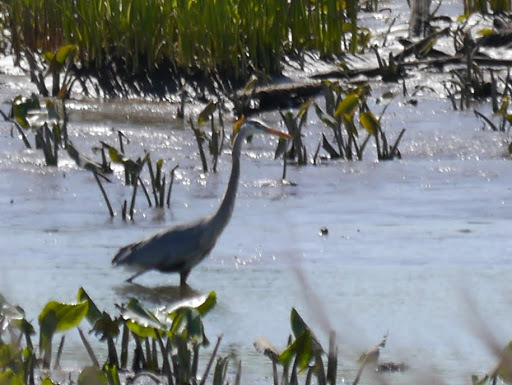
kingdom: Animalia
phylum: Chordata
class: Aves
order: Pelecaniformes
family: Ardeidae
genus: Ardea
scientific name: Ardea herodias
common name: Great blue heron
